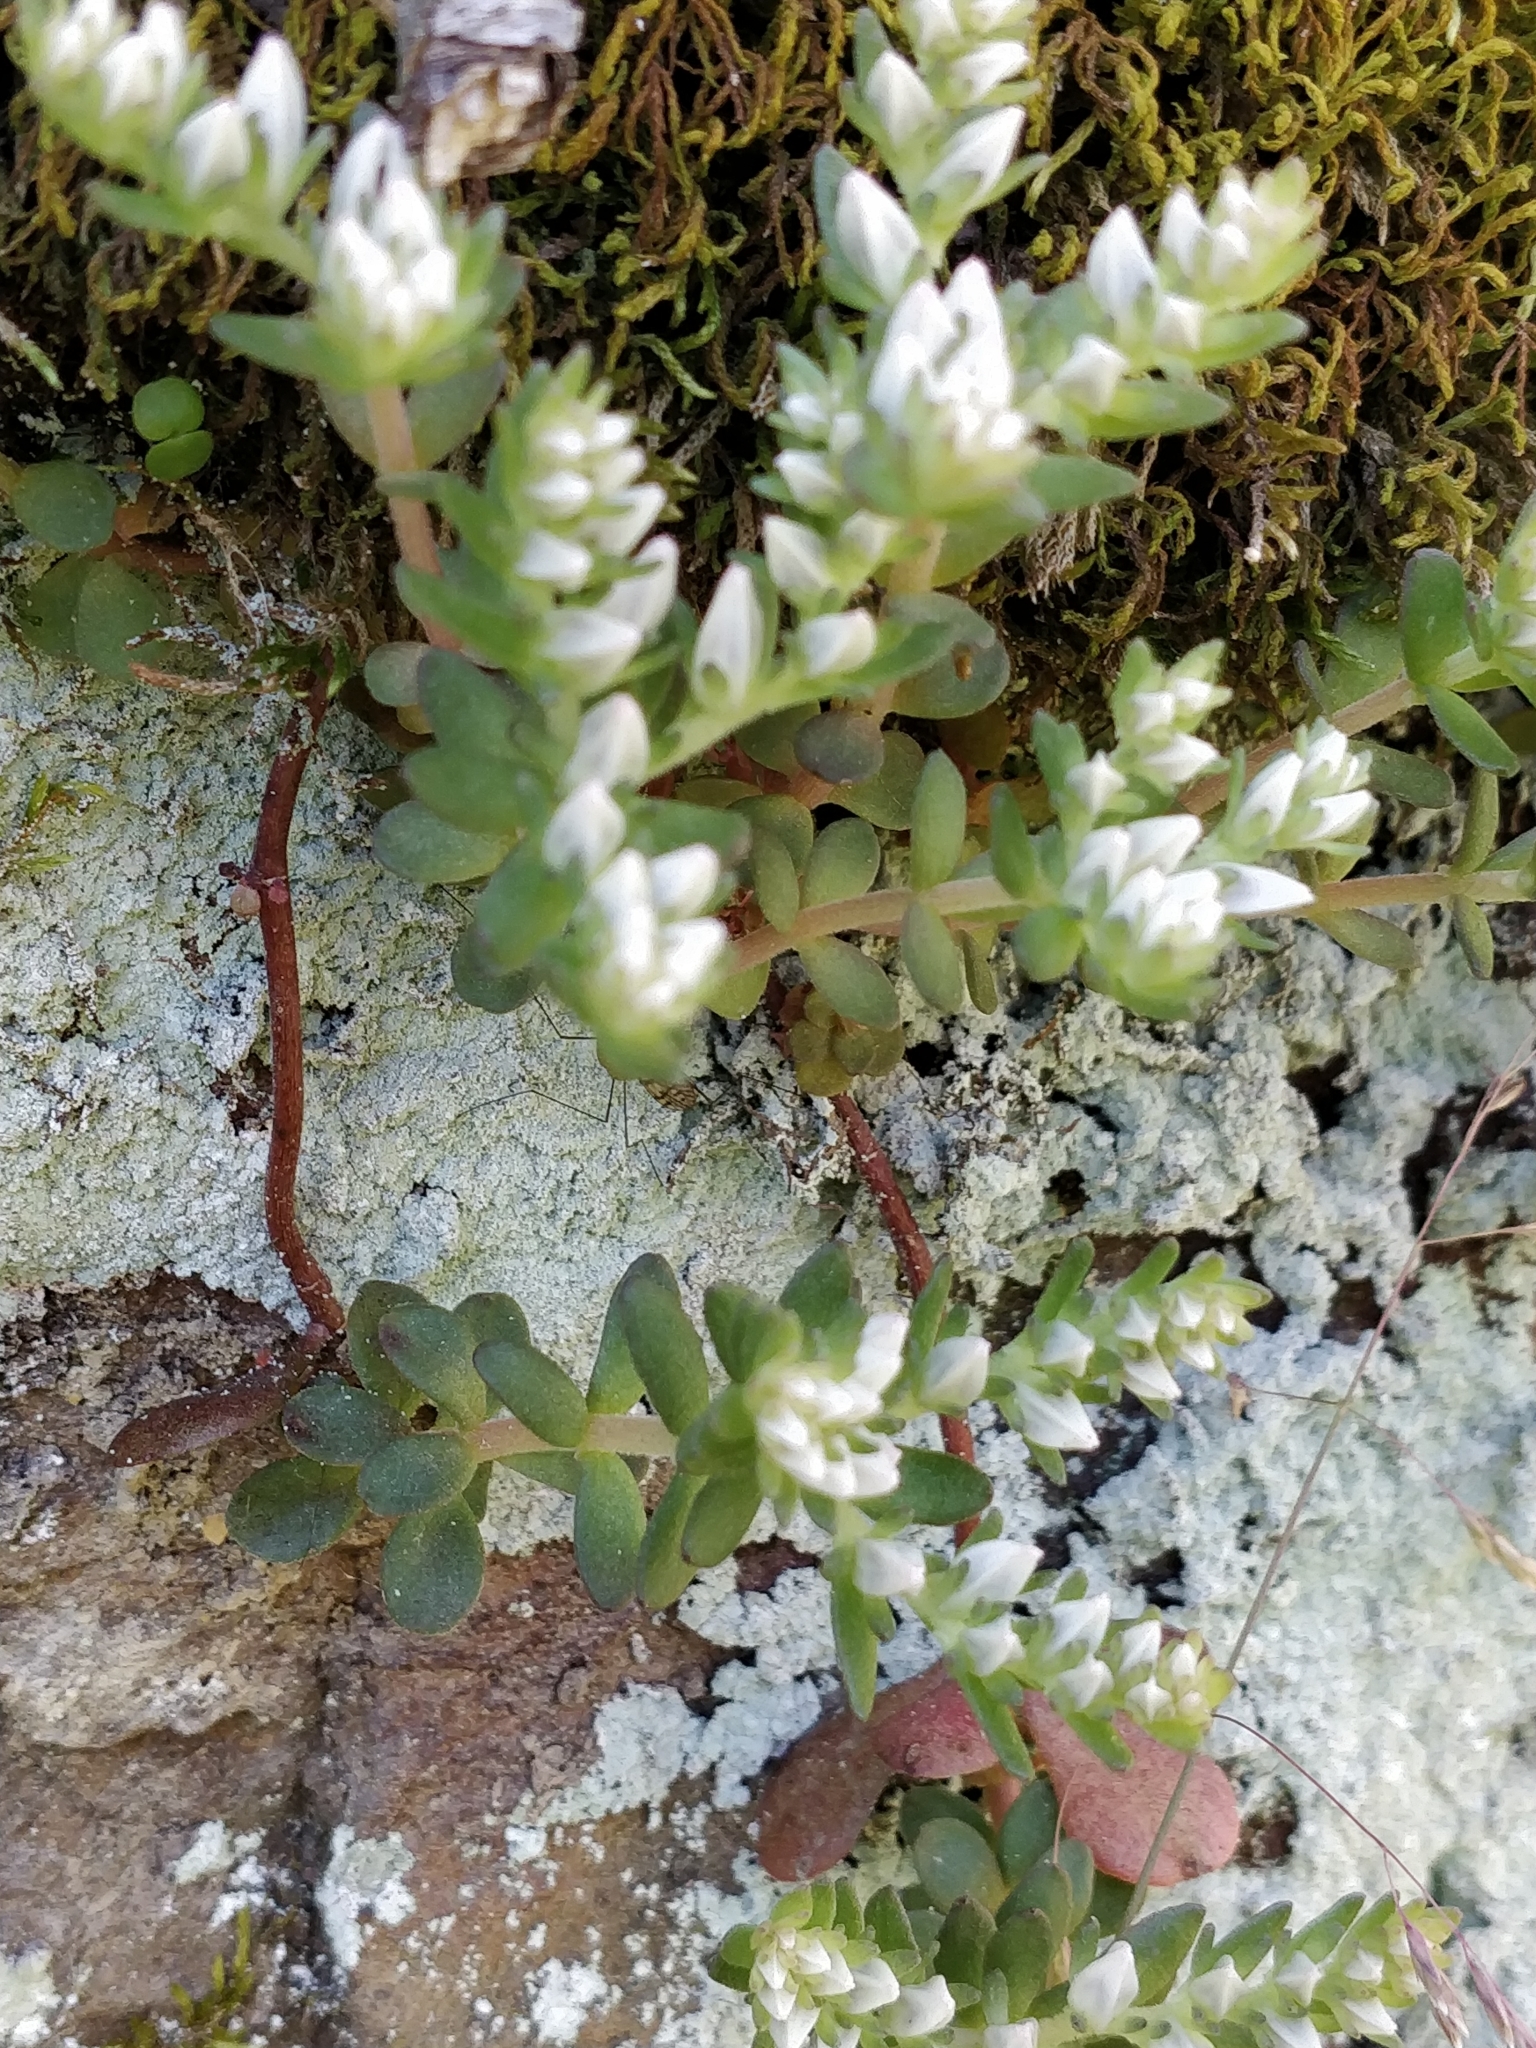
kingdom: Plantae
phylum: Tracheophyta
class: Magnoliopsida
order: Saxifragales
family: Crassulaceae
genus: Sedum
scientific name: Sedum ternatum
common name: Wild stonecrop
